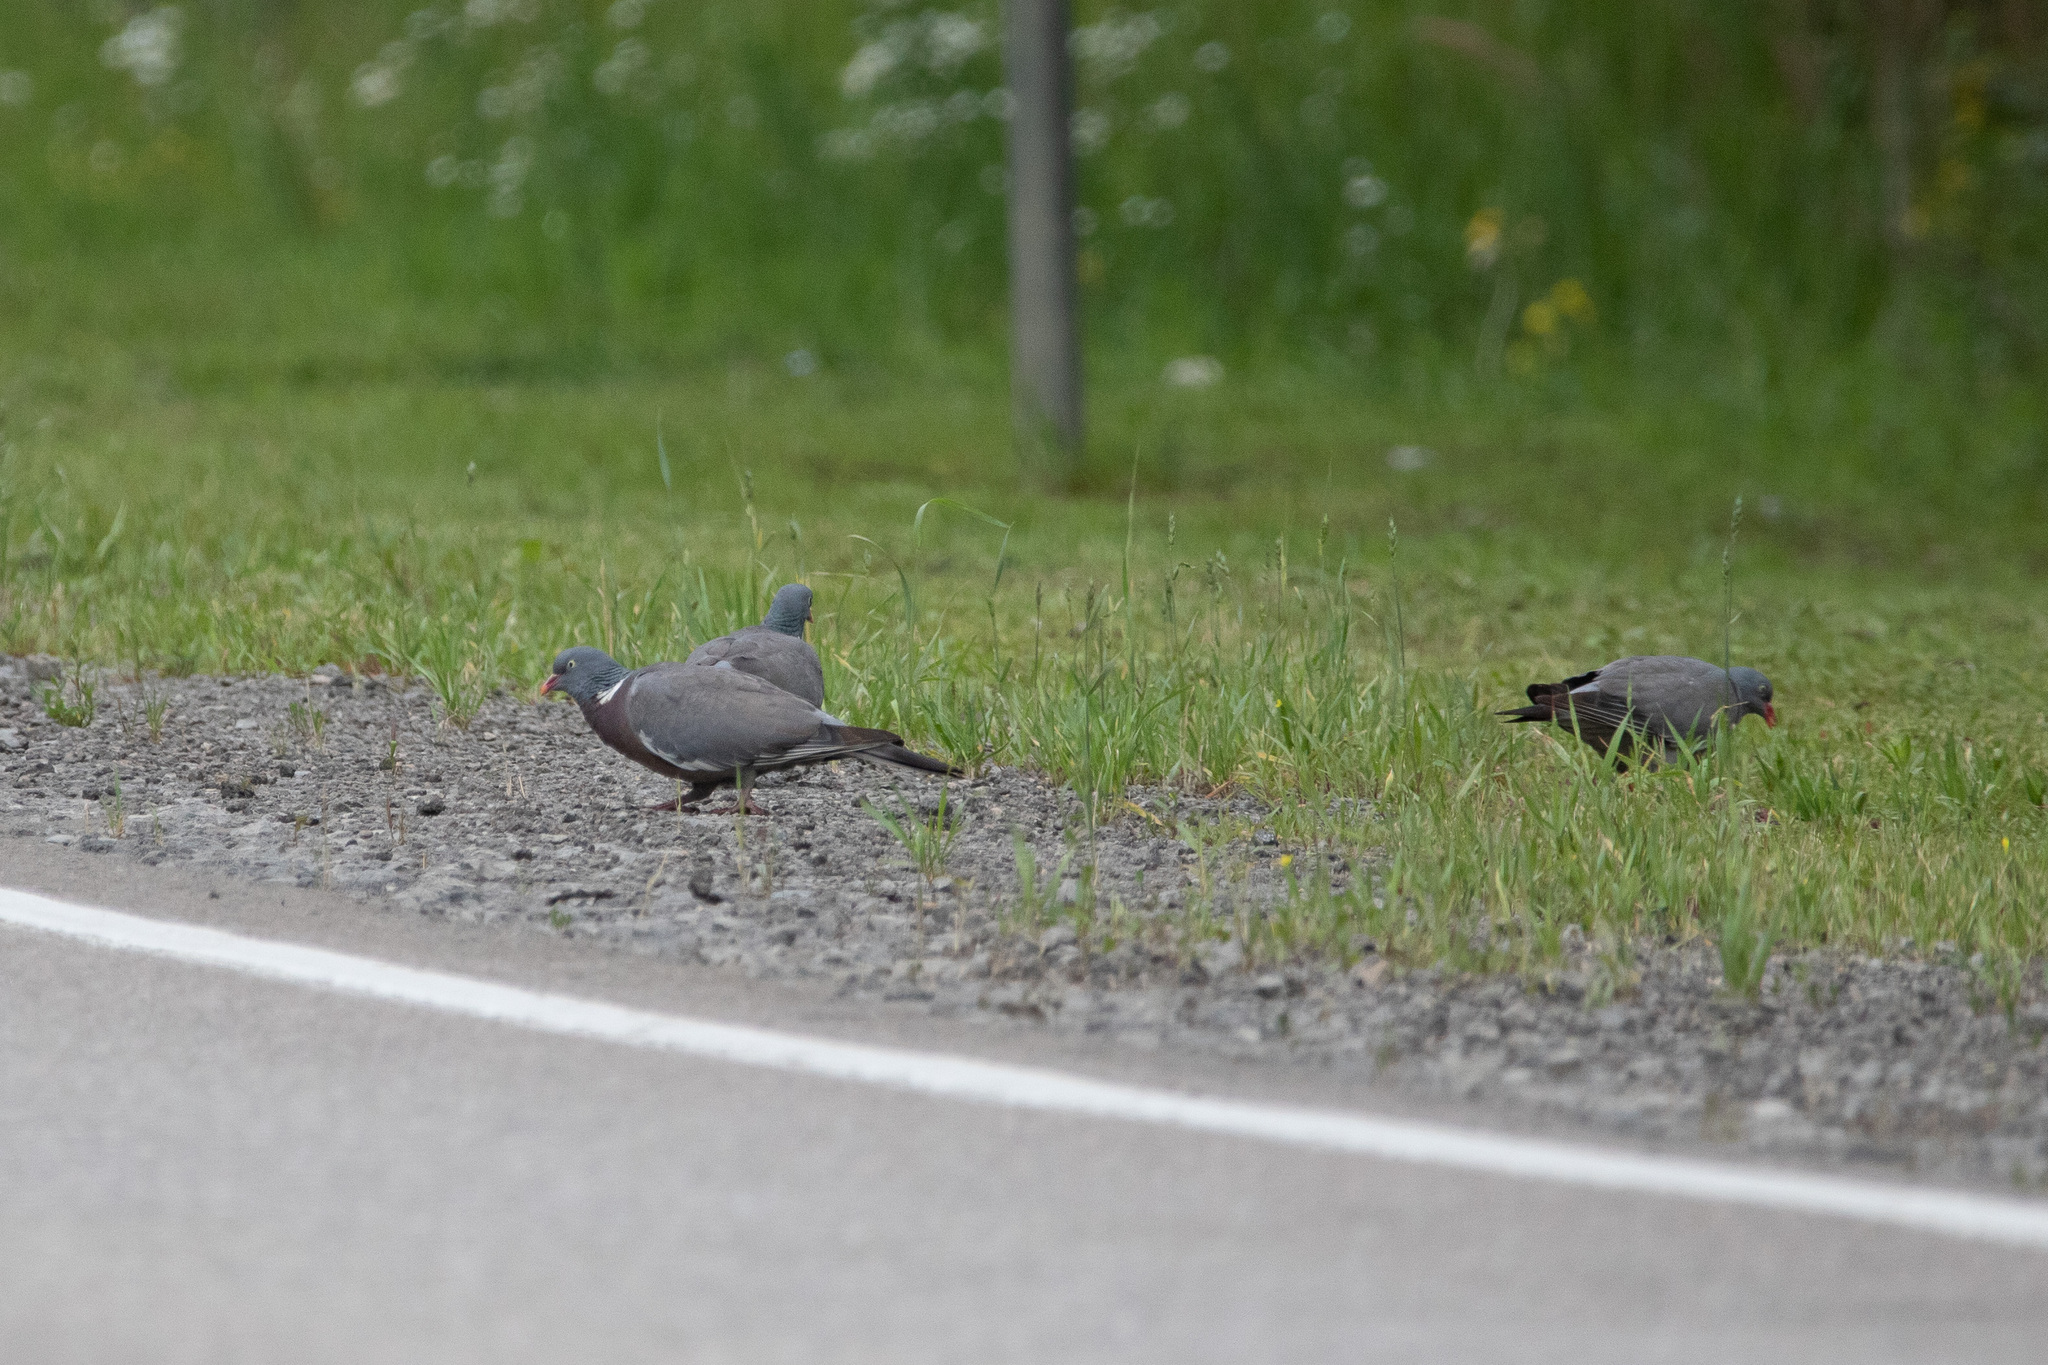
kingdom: Animalia
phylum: Chordata
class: Aves
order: Columbiformes
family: Columbidae
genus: Columba
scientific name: Columba palumbus
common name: Common wood pigeon
